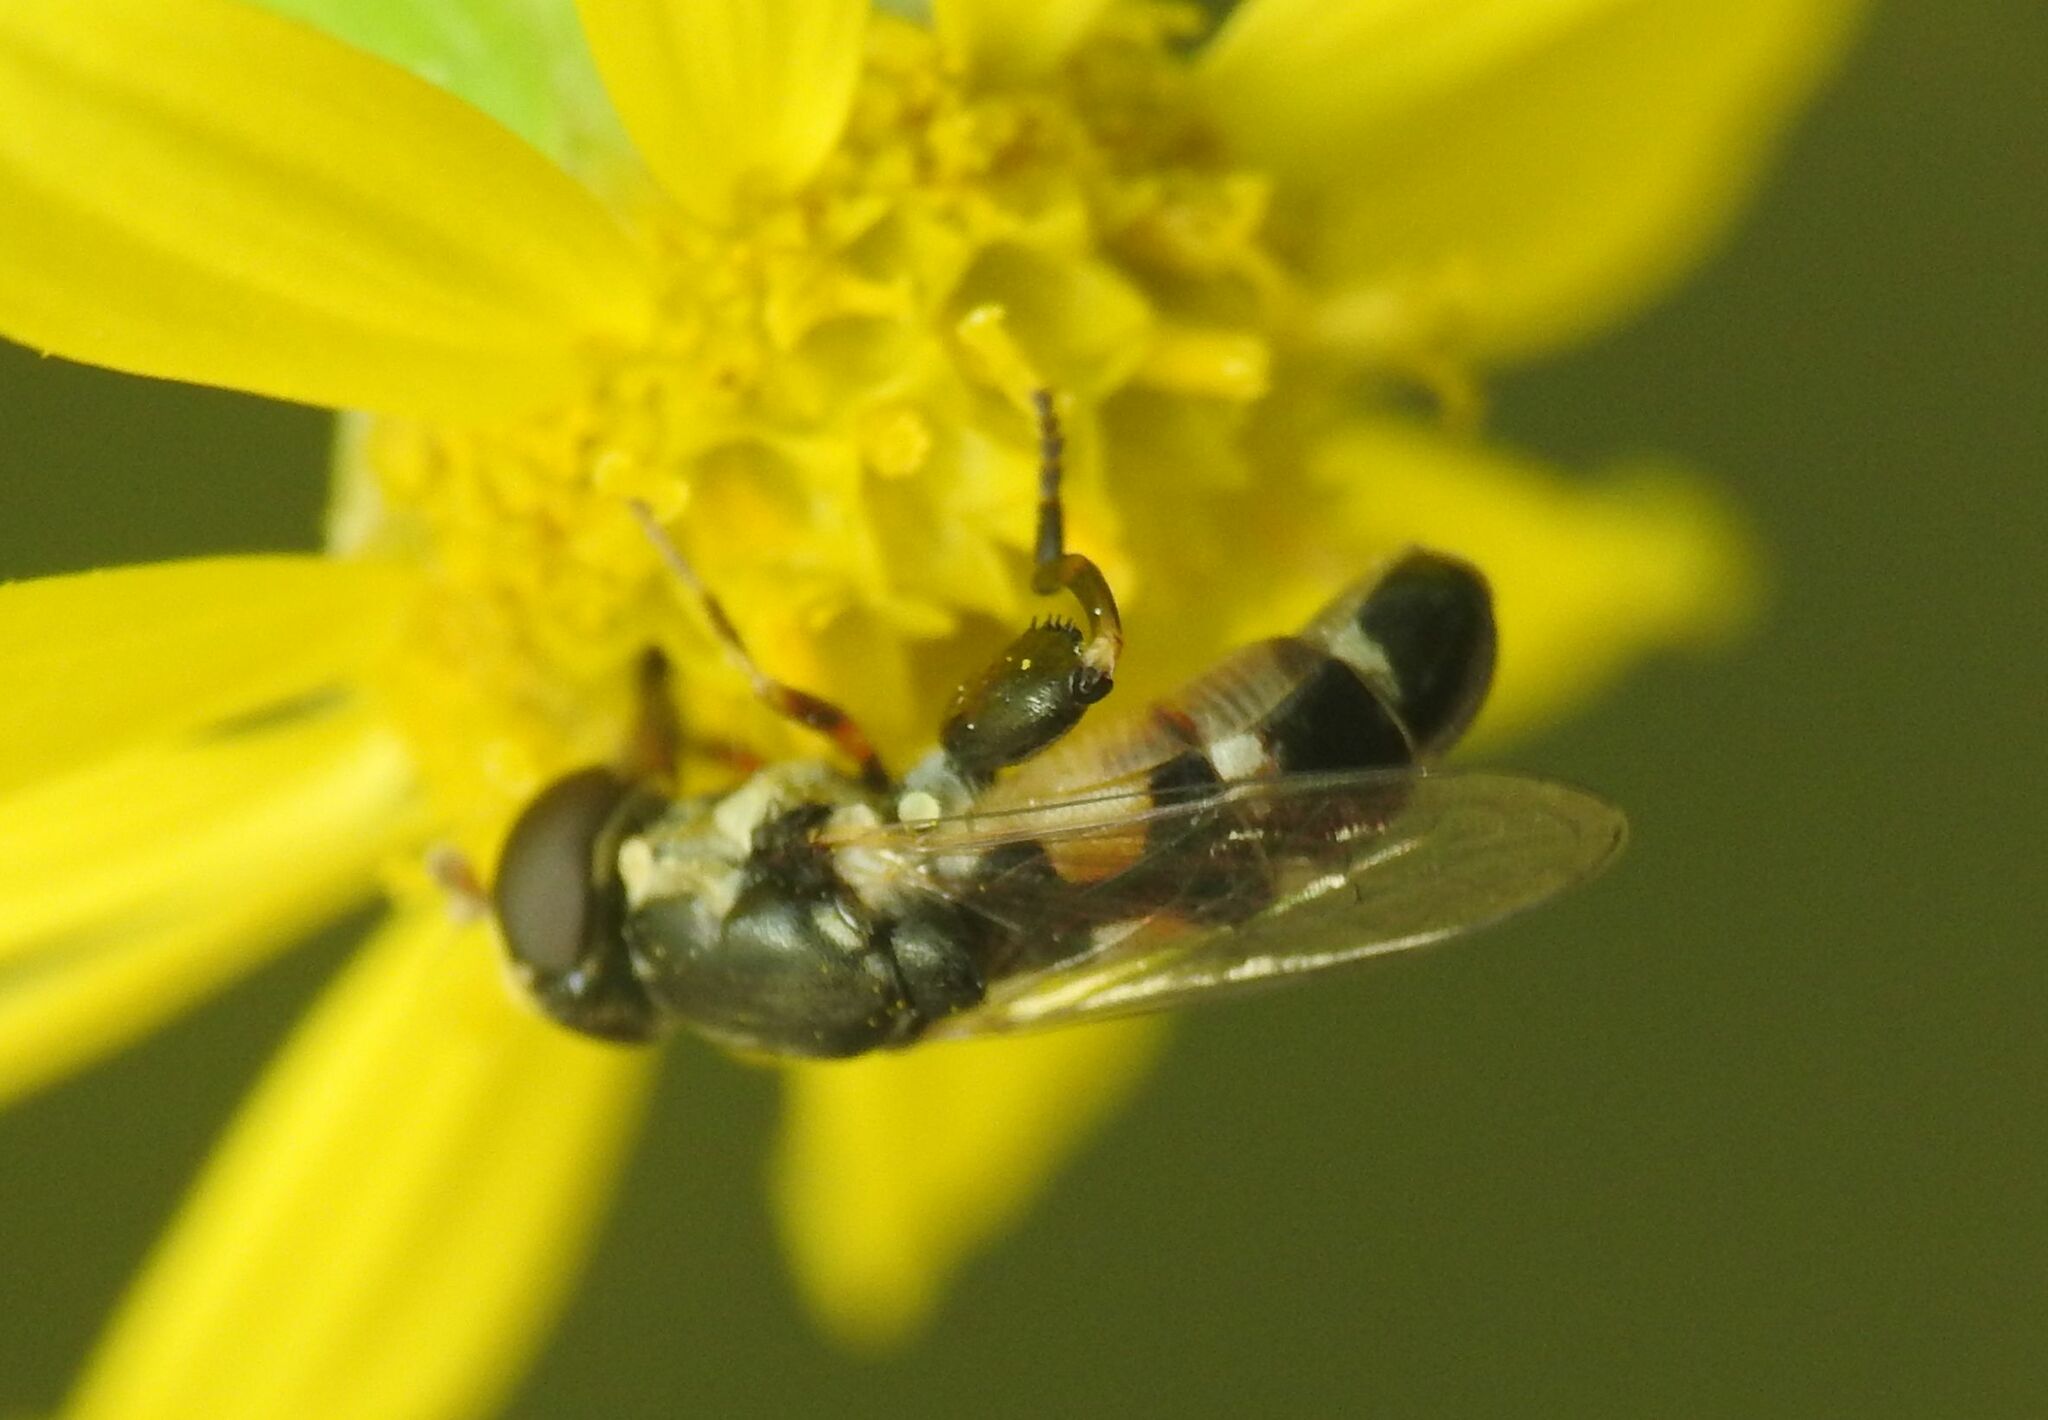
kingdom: Animalia
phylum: Arthropoda
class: Insecta
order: Diptera
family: Syrphidae
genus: Syritta
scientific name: Syritta pipiens
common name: Hover fly
